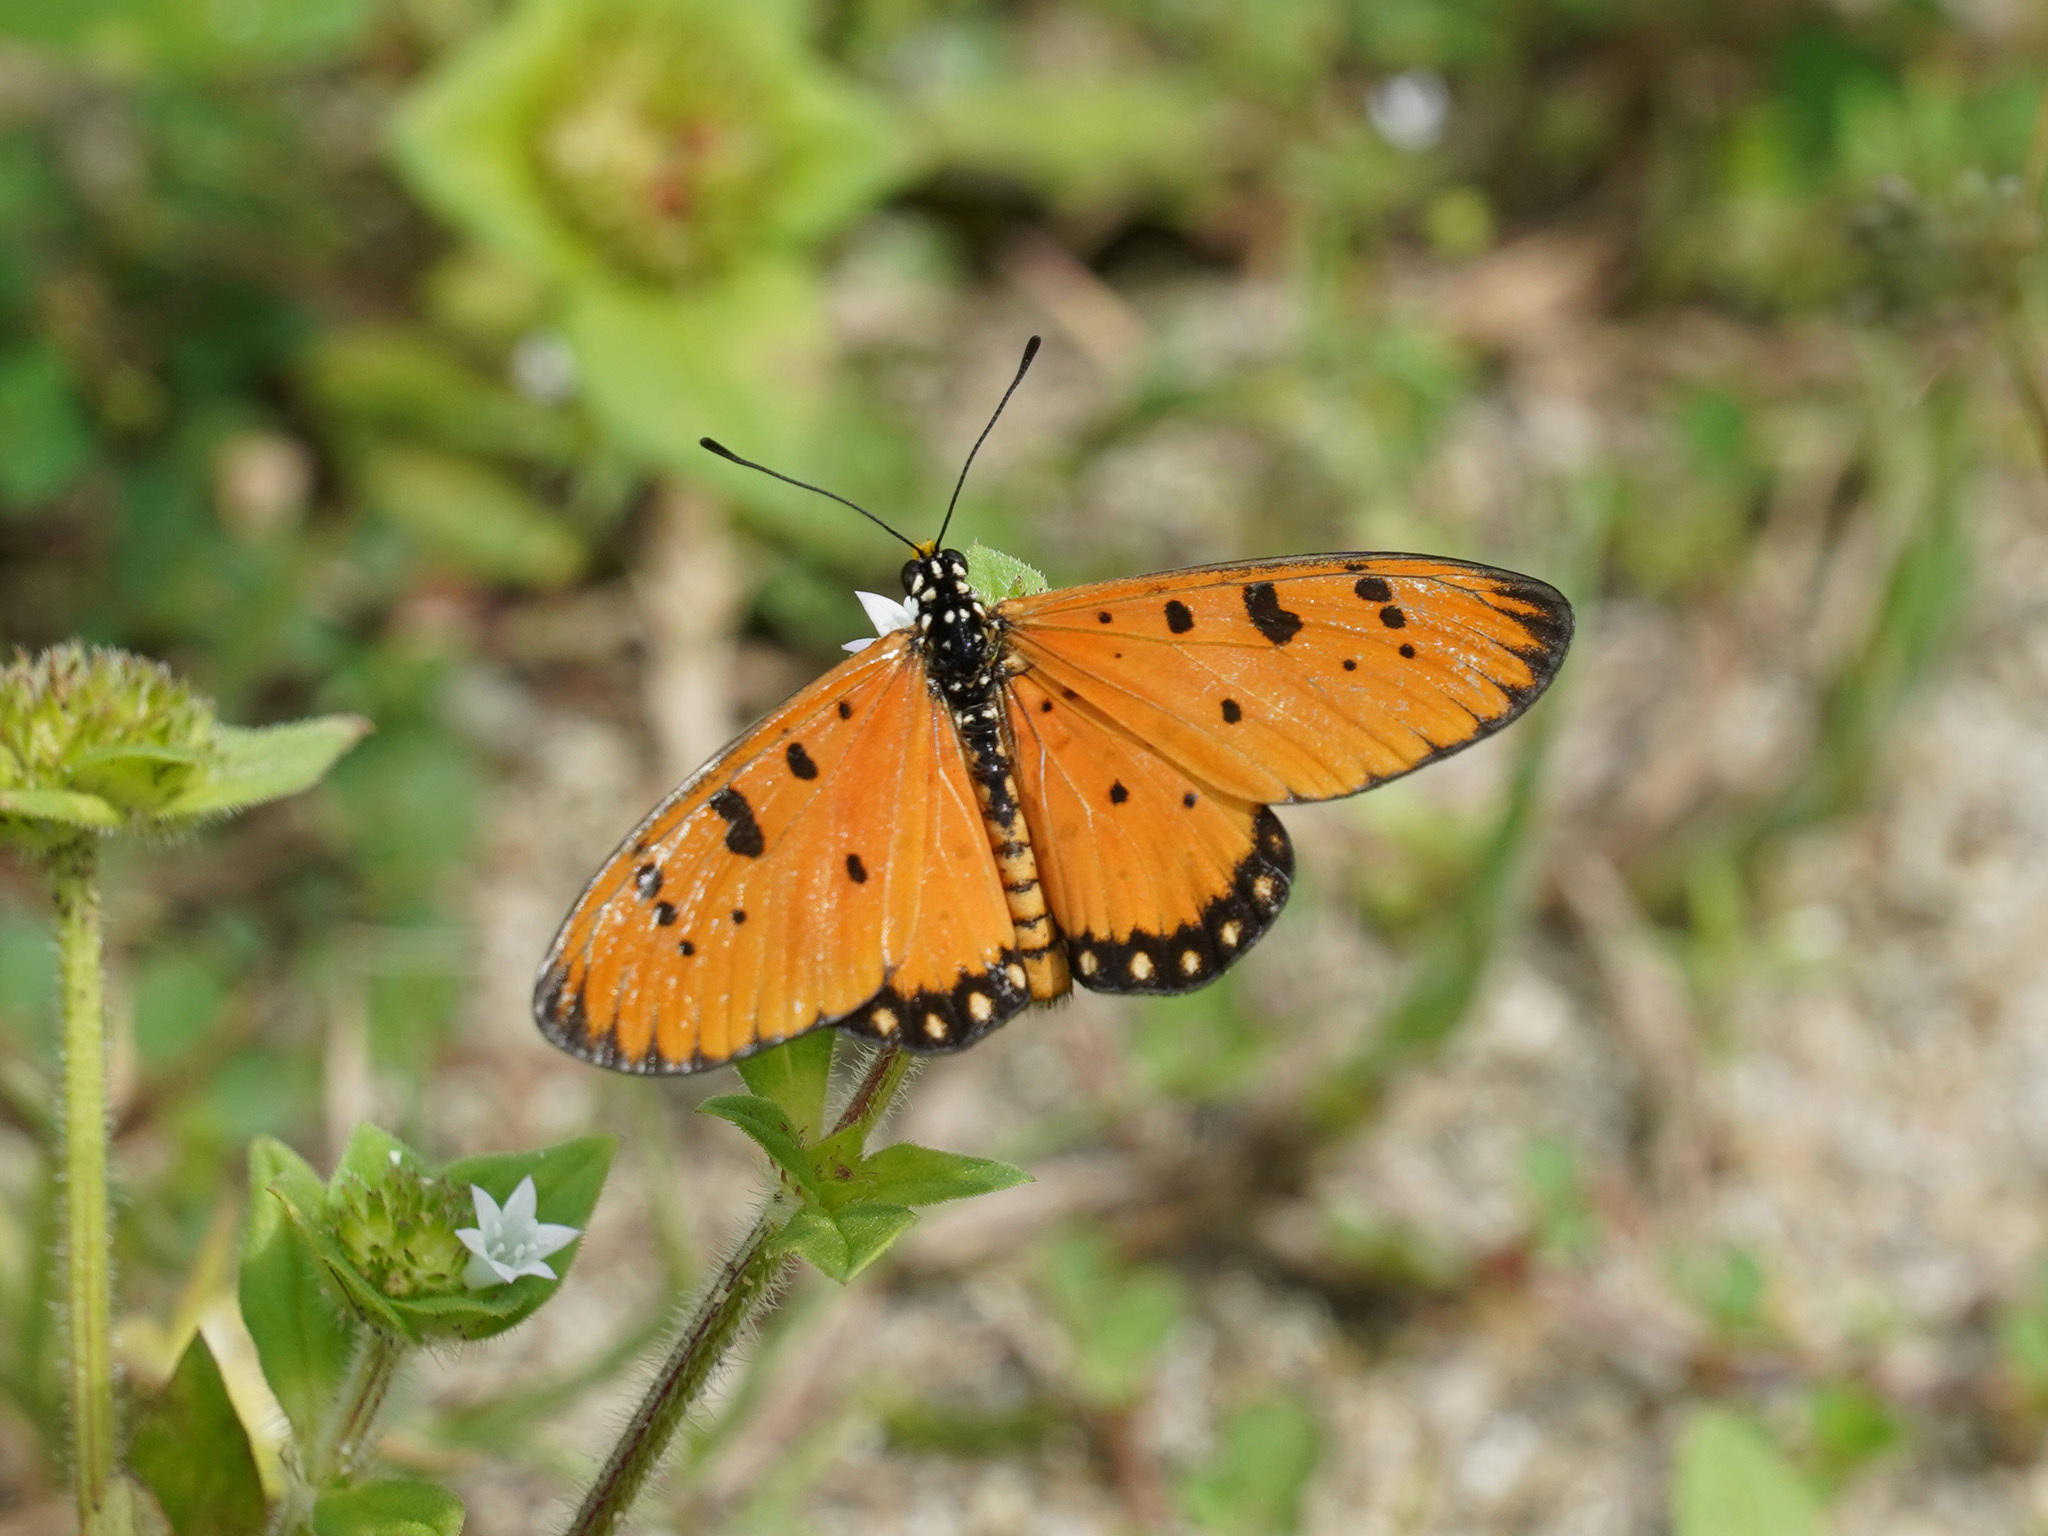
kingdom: Animalia
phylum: Arthropoda
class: Insecta
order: Lepidoptera
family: Nymphalidae
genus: Acraea
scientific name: Acraea terpsicore
